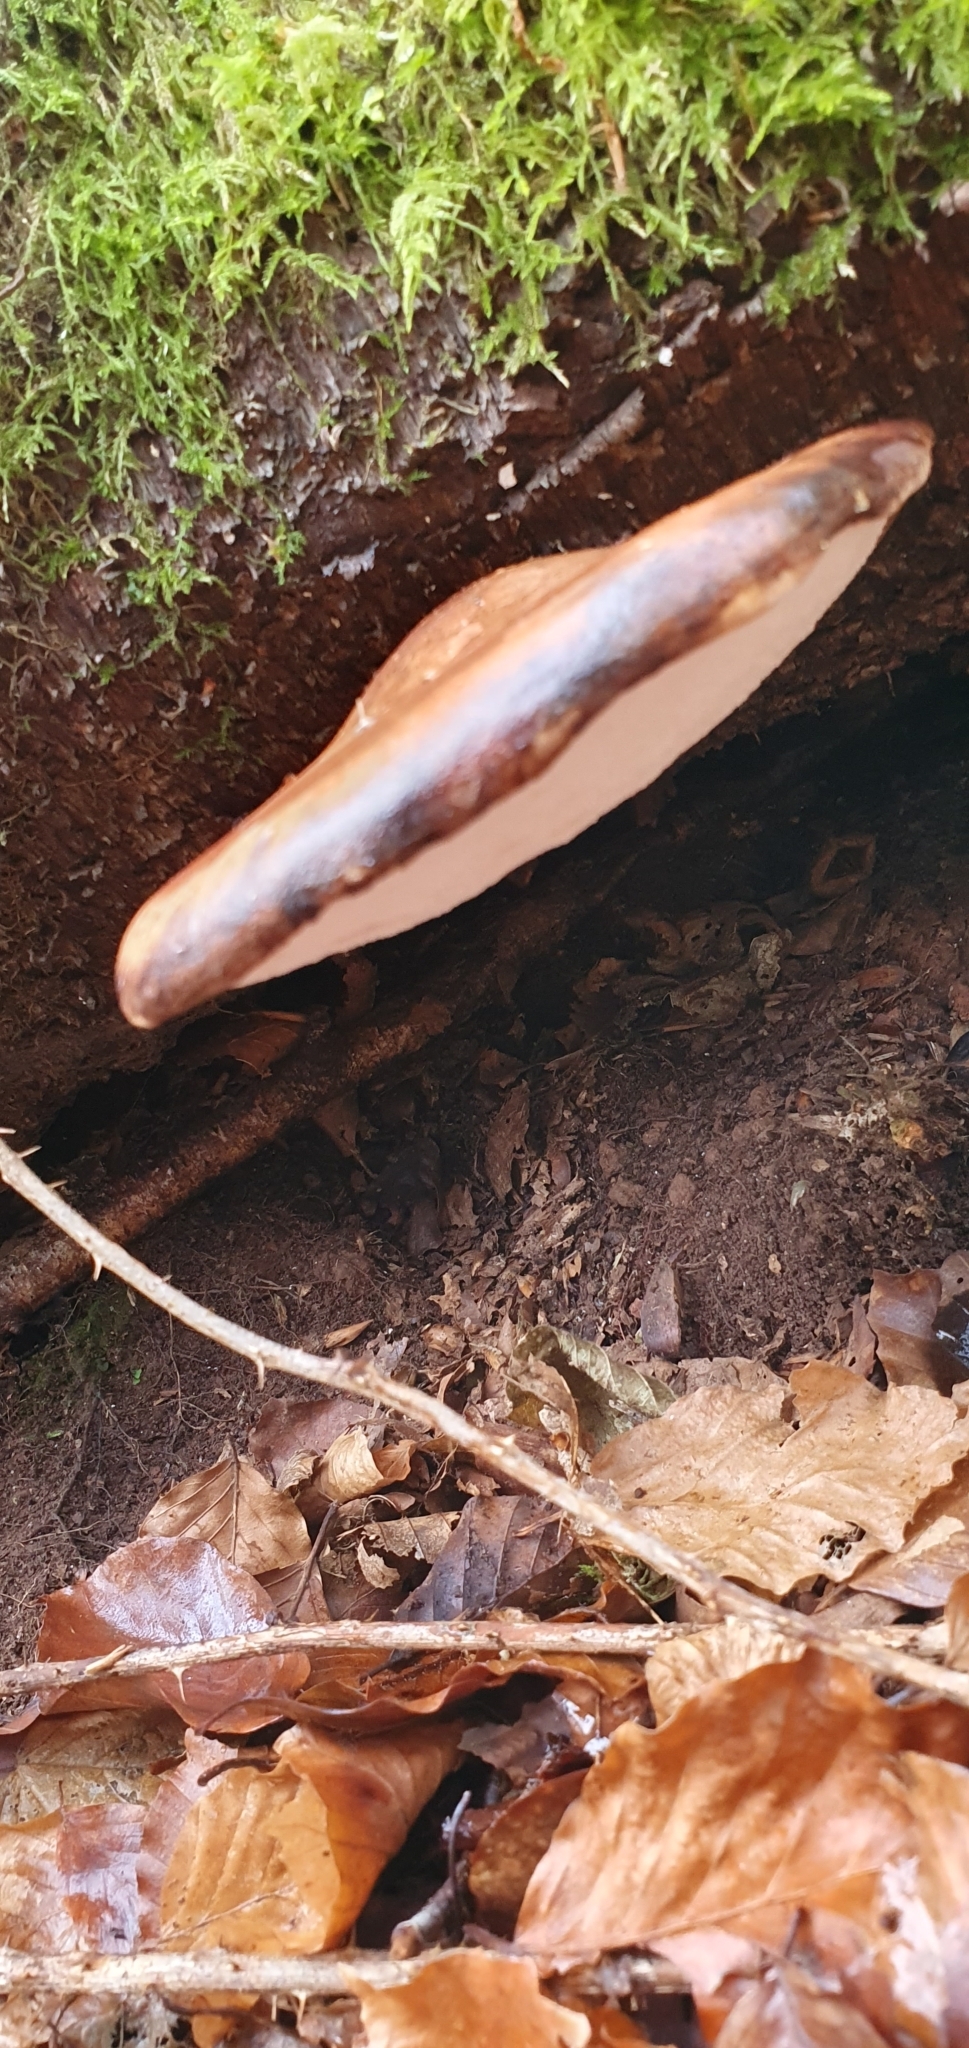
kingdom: Fungi
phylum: Basidiomycota
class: Agaricomycetes
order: Polyporales
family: Fomitopsidaceae
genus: Fomitopsis
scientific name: Fomitopsis betulina
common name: Birch polypore
